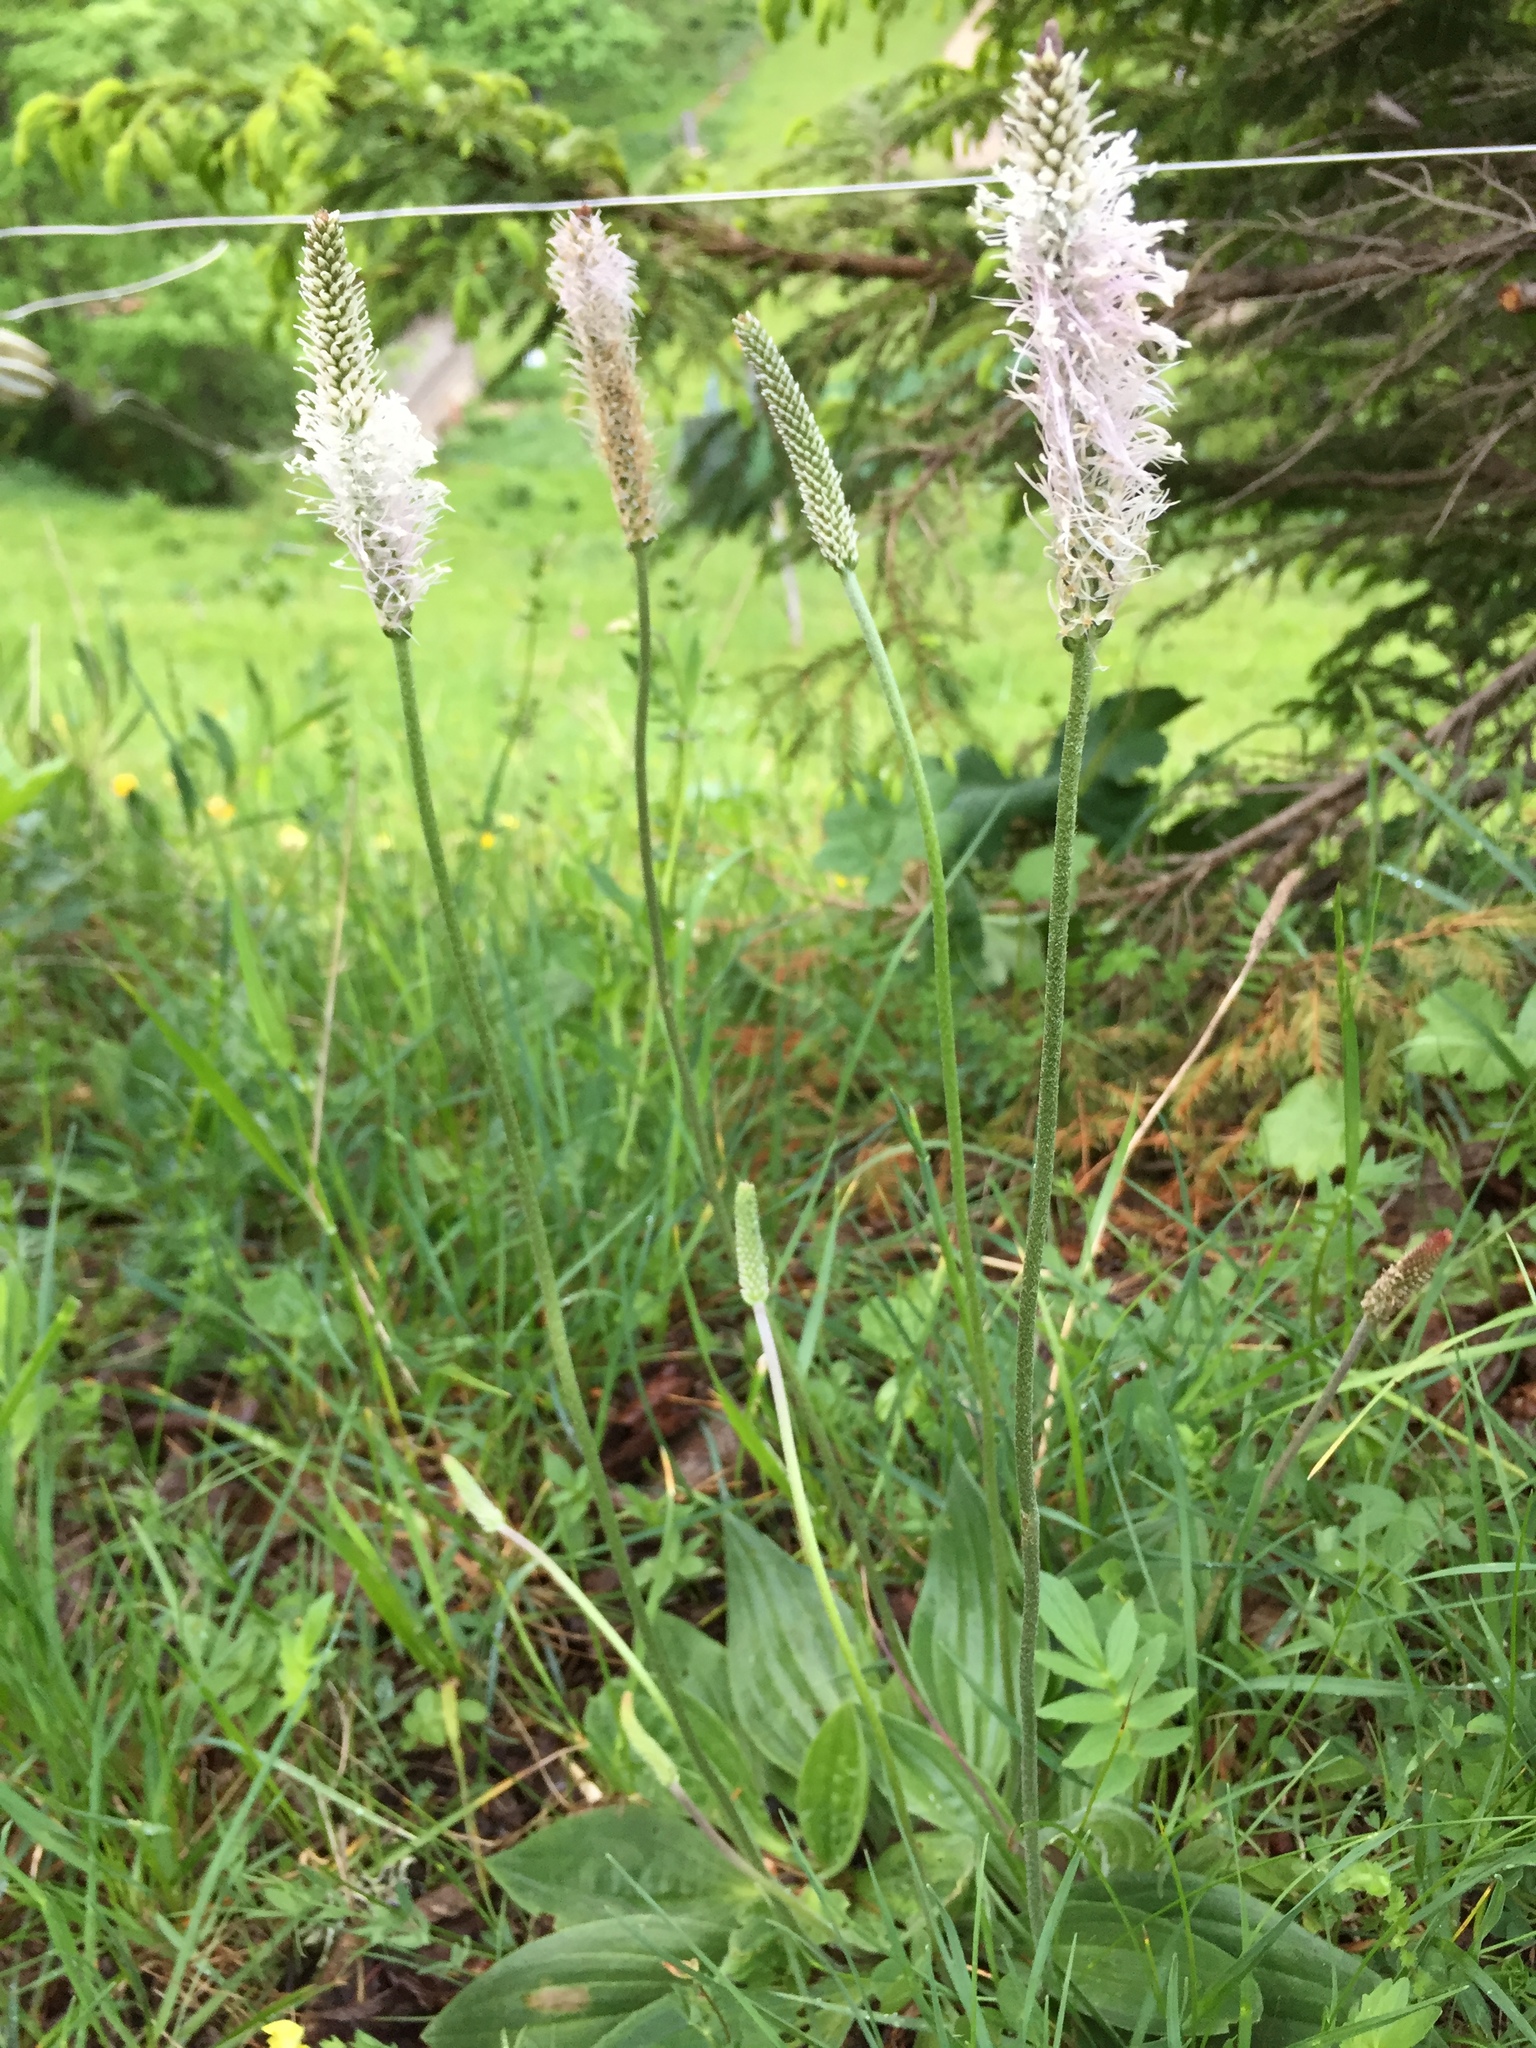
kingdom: Plantae
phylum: Tracheophyta
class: Magnoliopsida
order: Lamiales
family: Plantaginaceae
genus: Plantago
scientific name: Plantago media
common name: Hoary plantain
